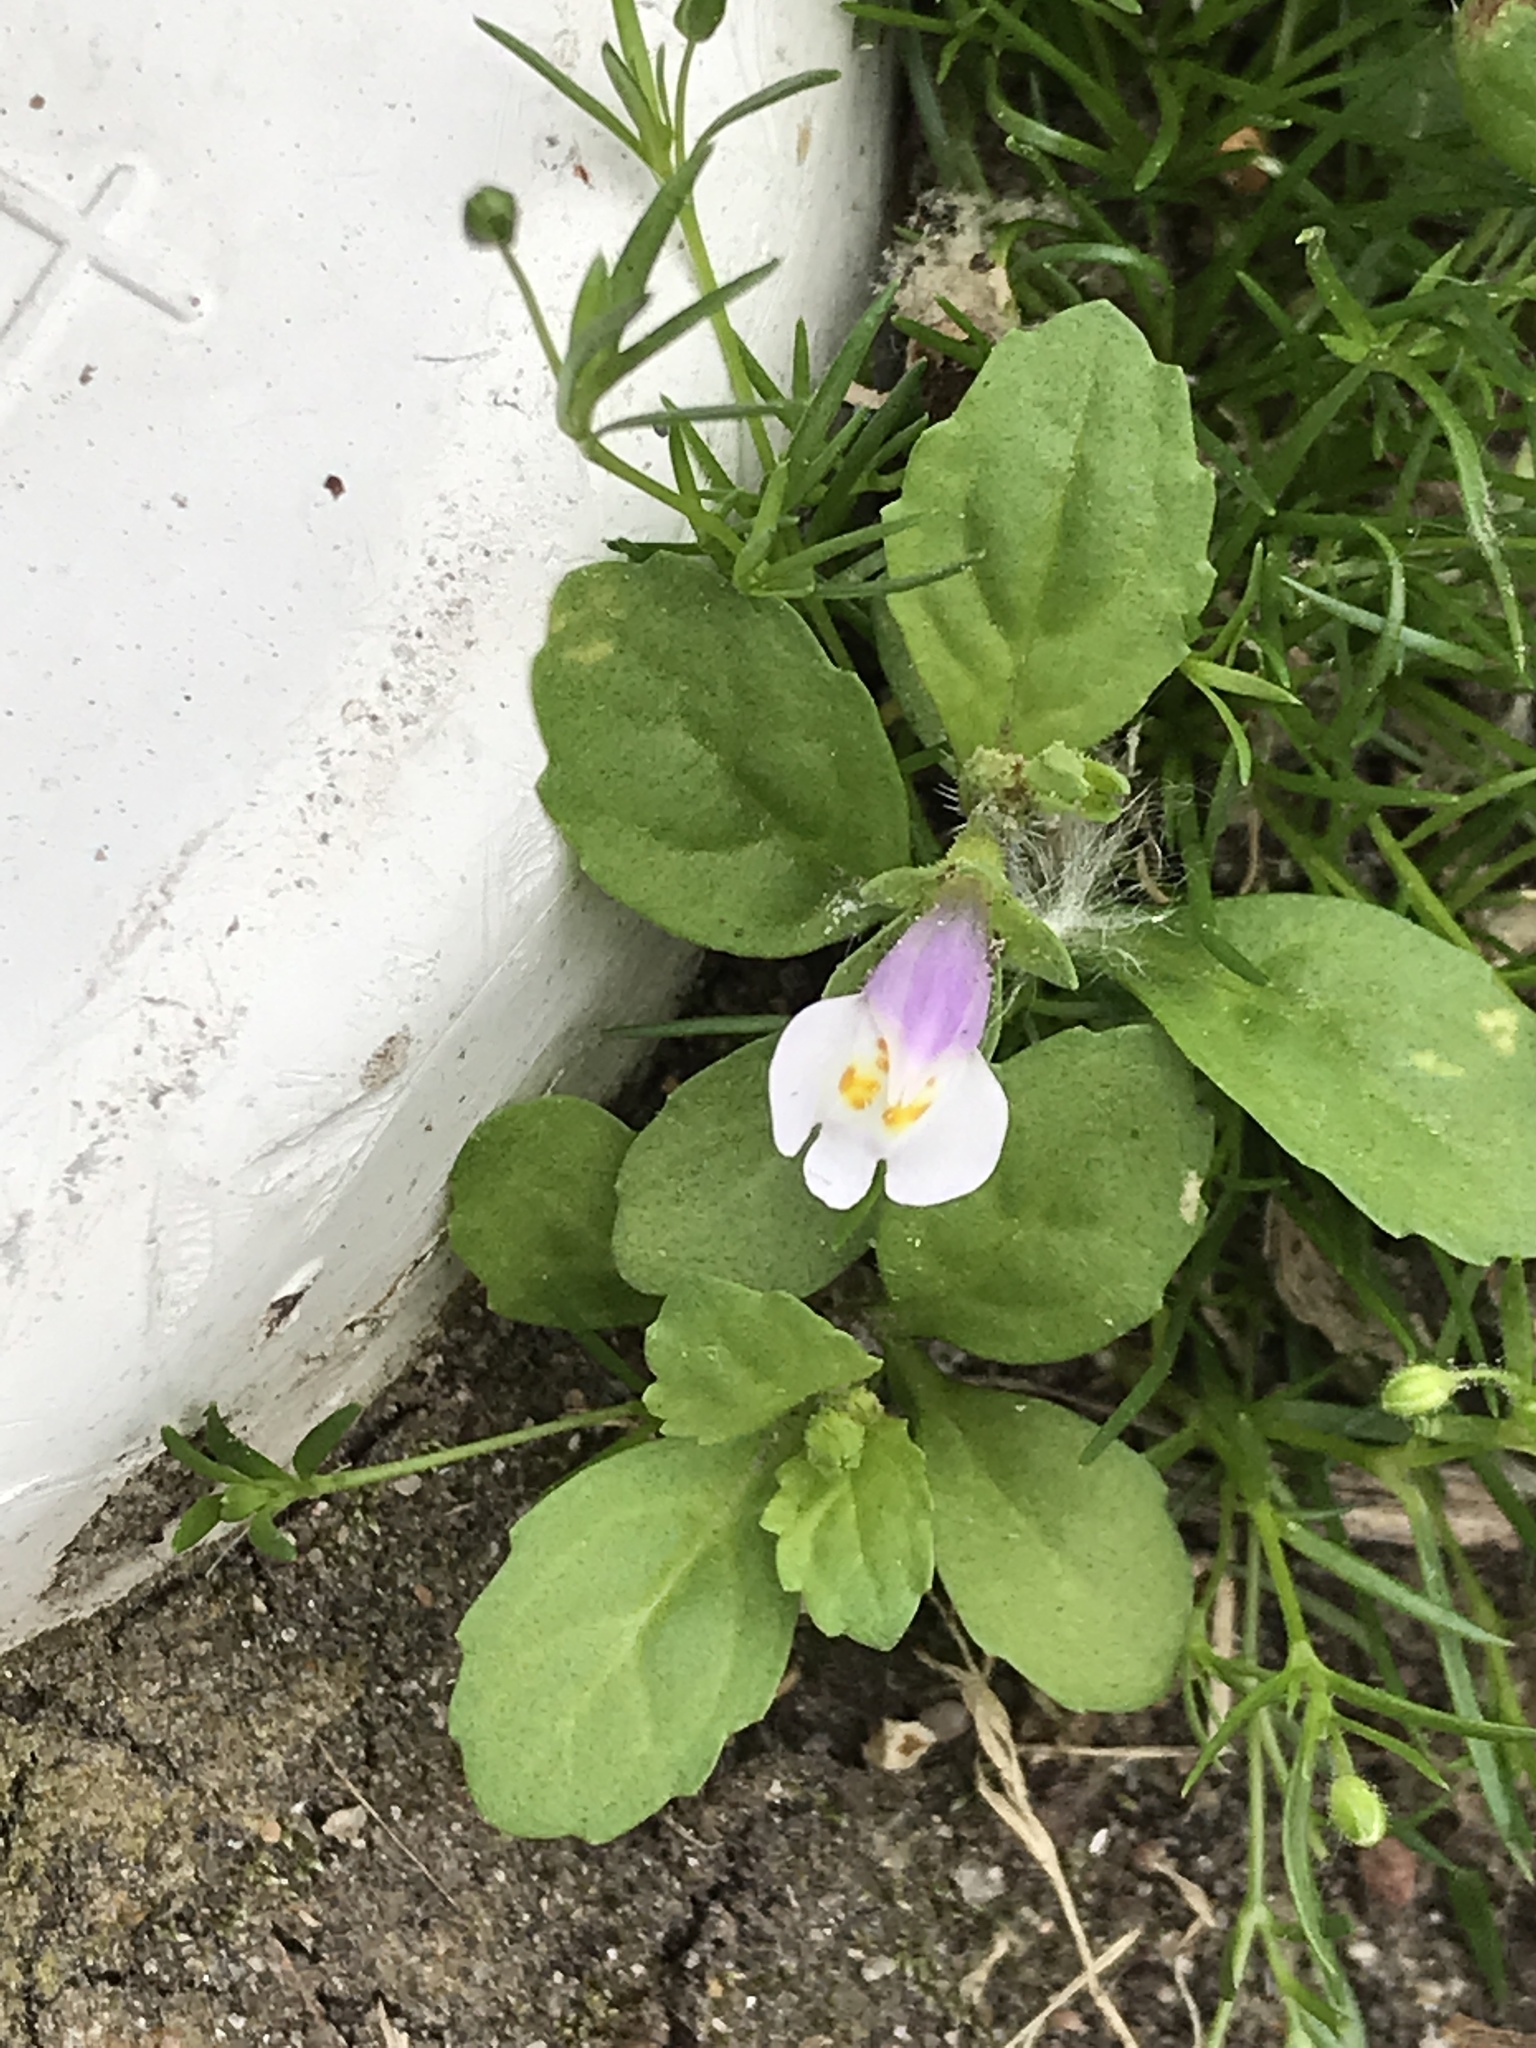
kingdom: Plantae
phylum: Tracheophyta
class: Magnoliopsida
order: Lamiales
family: Mazaceae
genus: Mazus
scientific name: Mazus pumilus
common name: Japanese mazus
